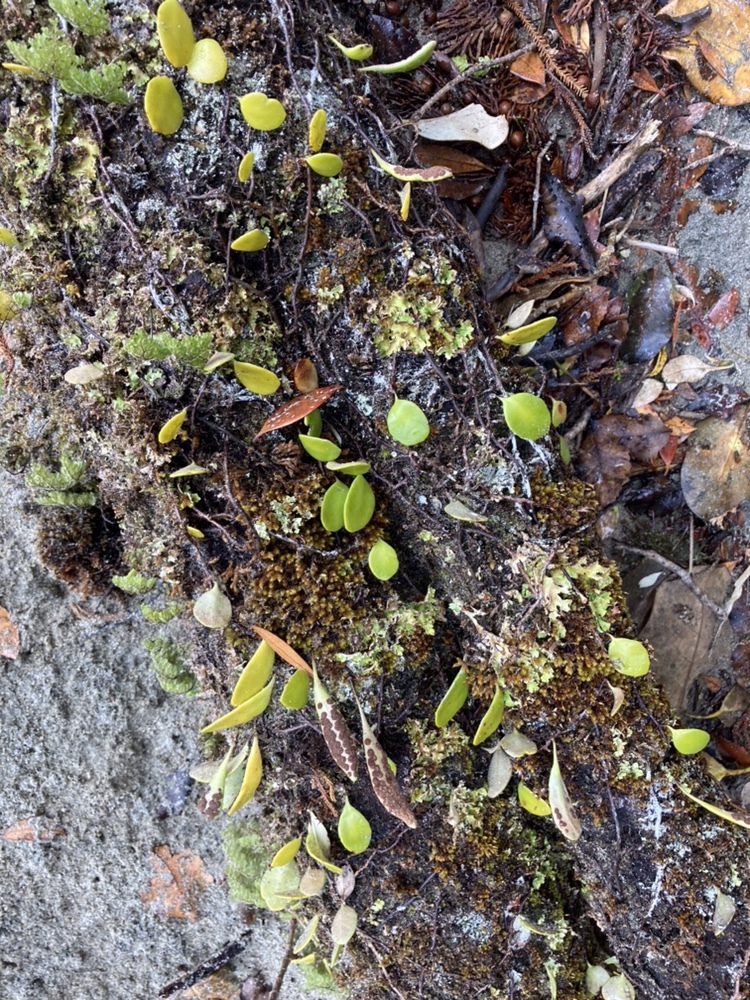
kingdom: Plantae
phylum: Tracheophyta
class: Polypodiopsida
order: Polypodiales
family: Polypodiaceae
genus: Pyrrosia
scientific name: Pyrrosia eleagnifolia
